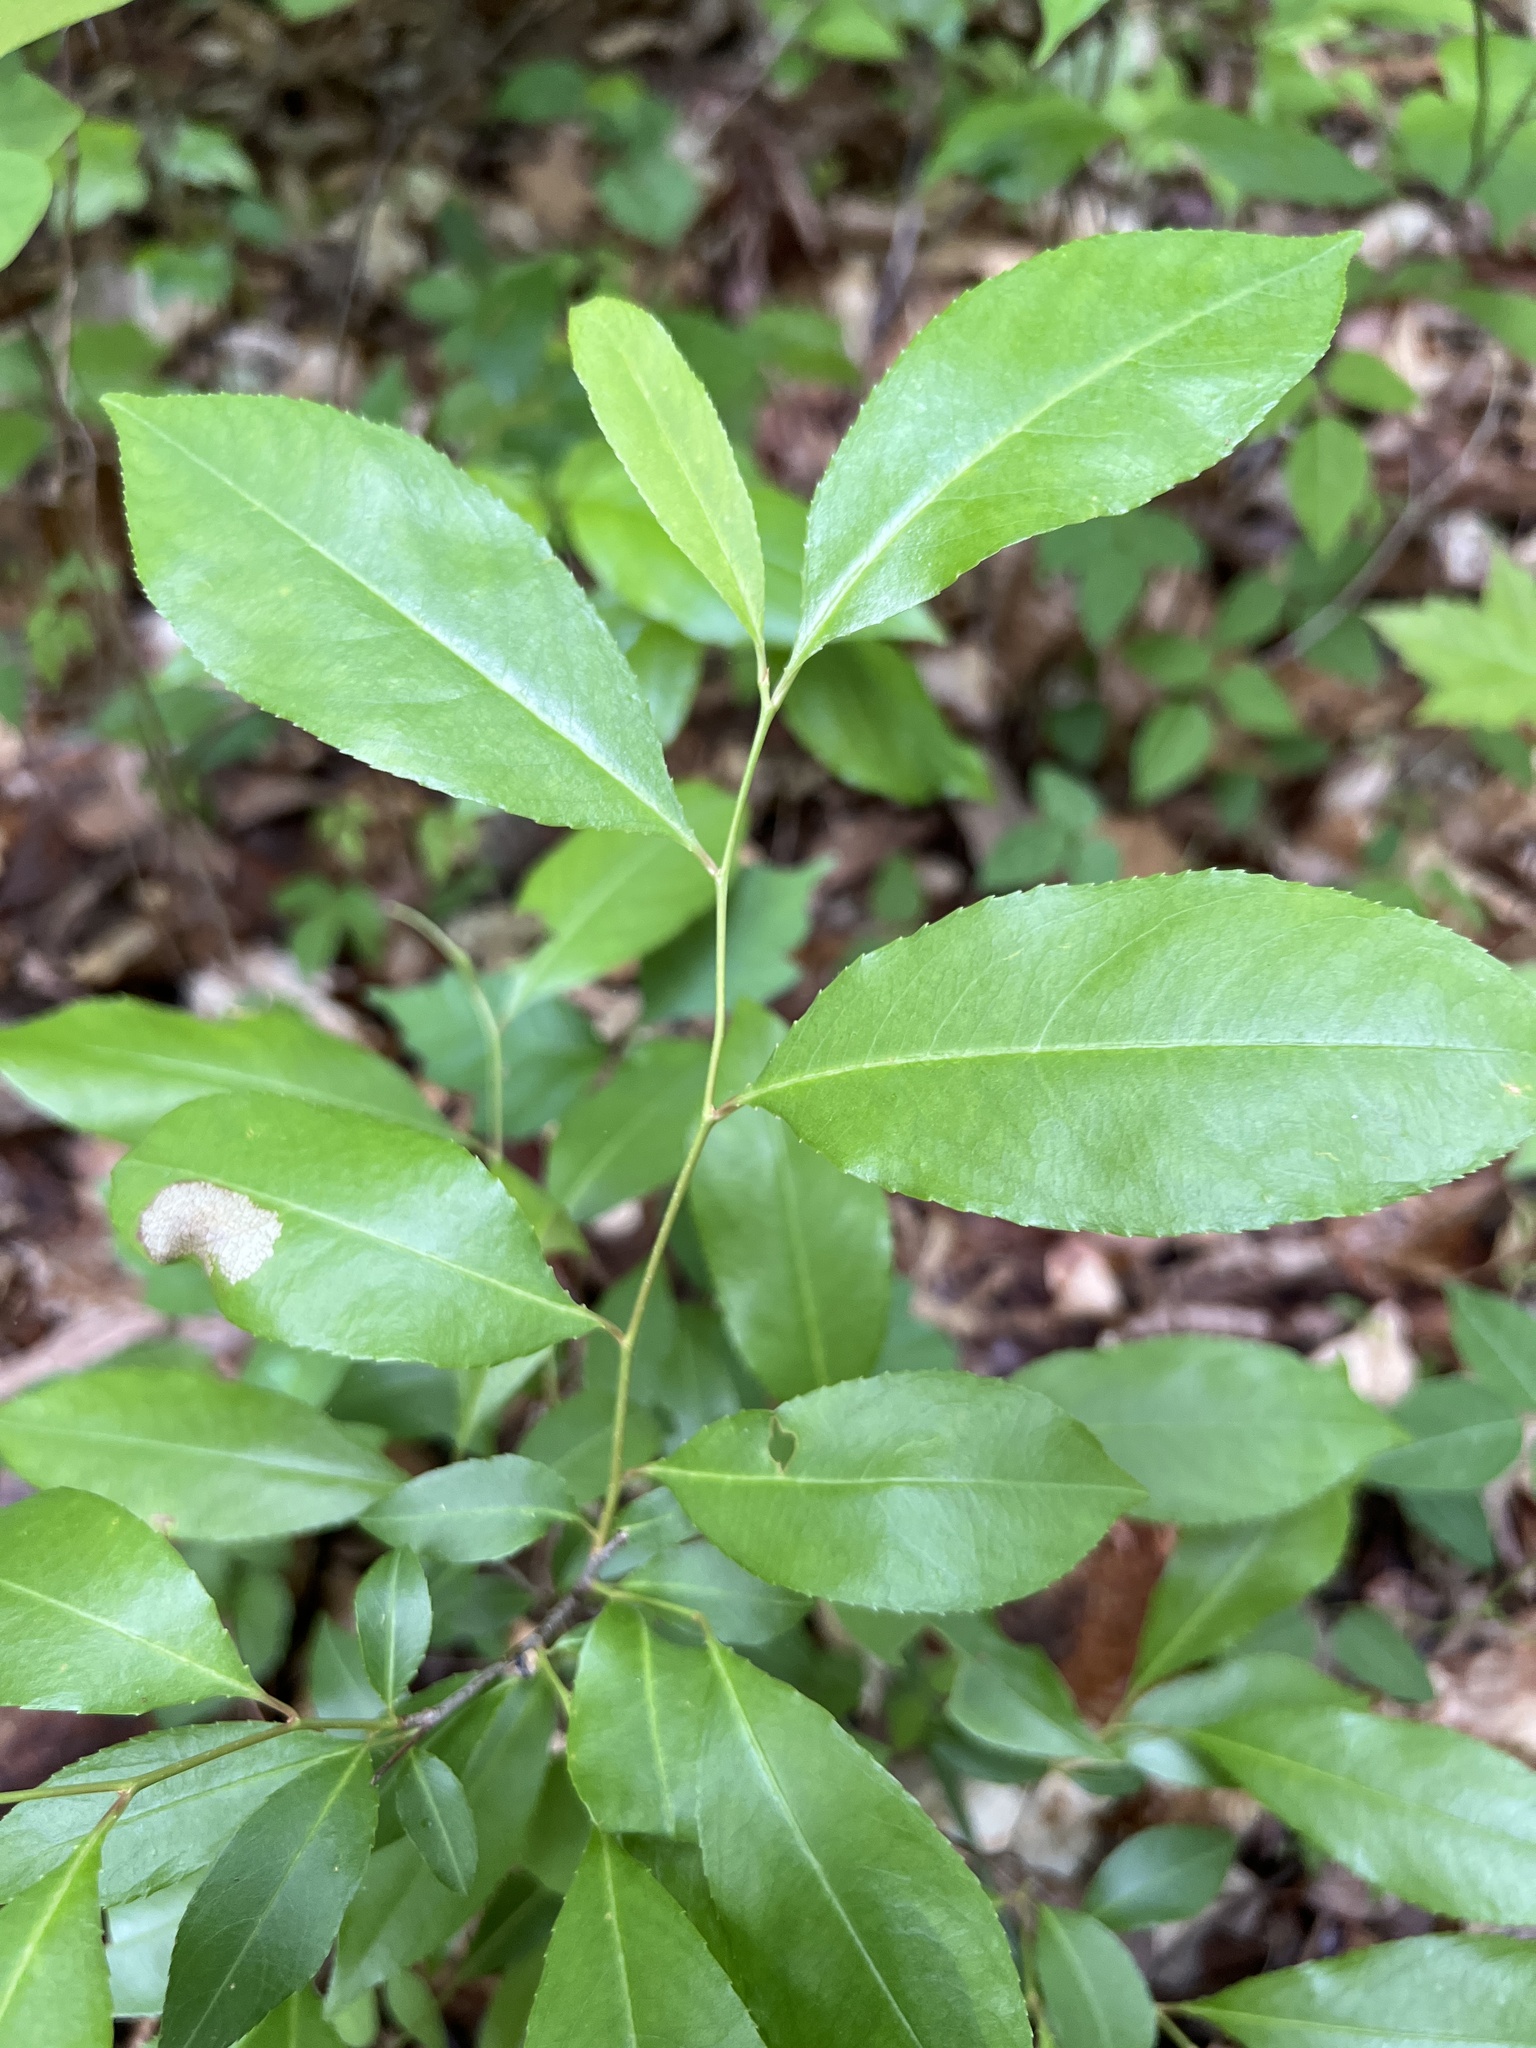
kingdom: Plantae
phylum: Tracheophyta
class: Magnoliopsida
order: Rosales
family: Rosaceae
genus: Prunus
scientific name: Prunus serotina
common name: Black cherry
